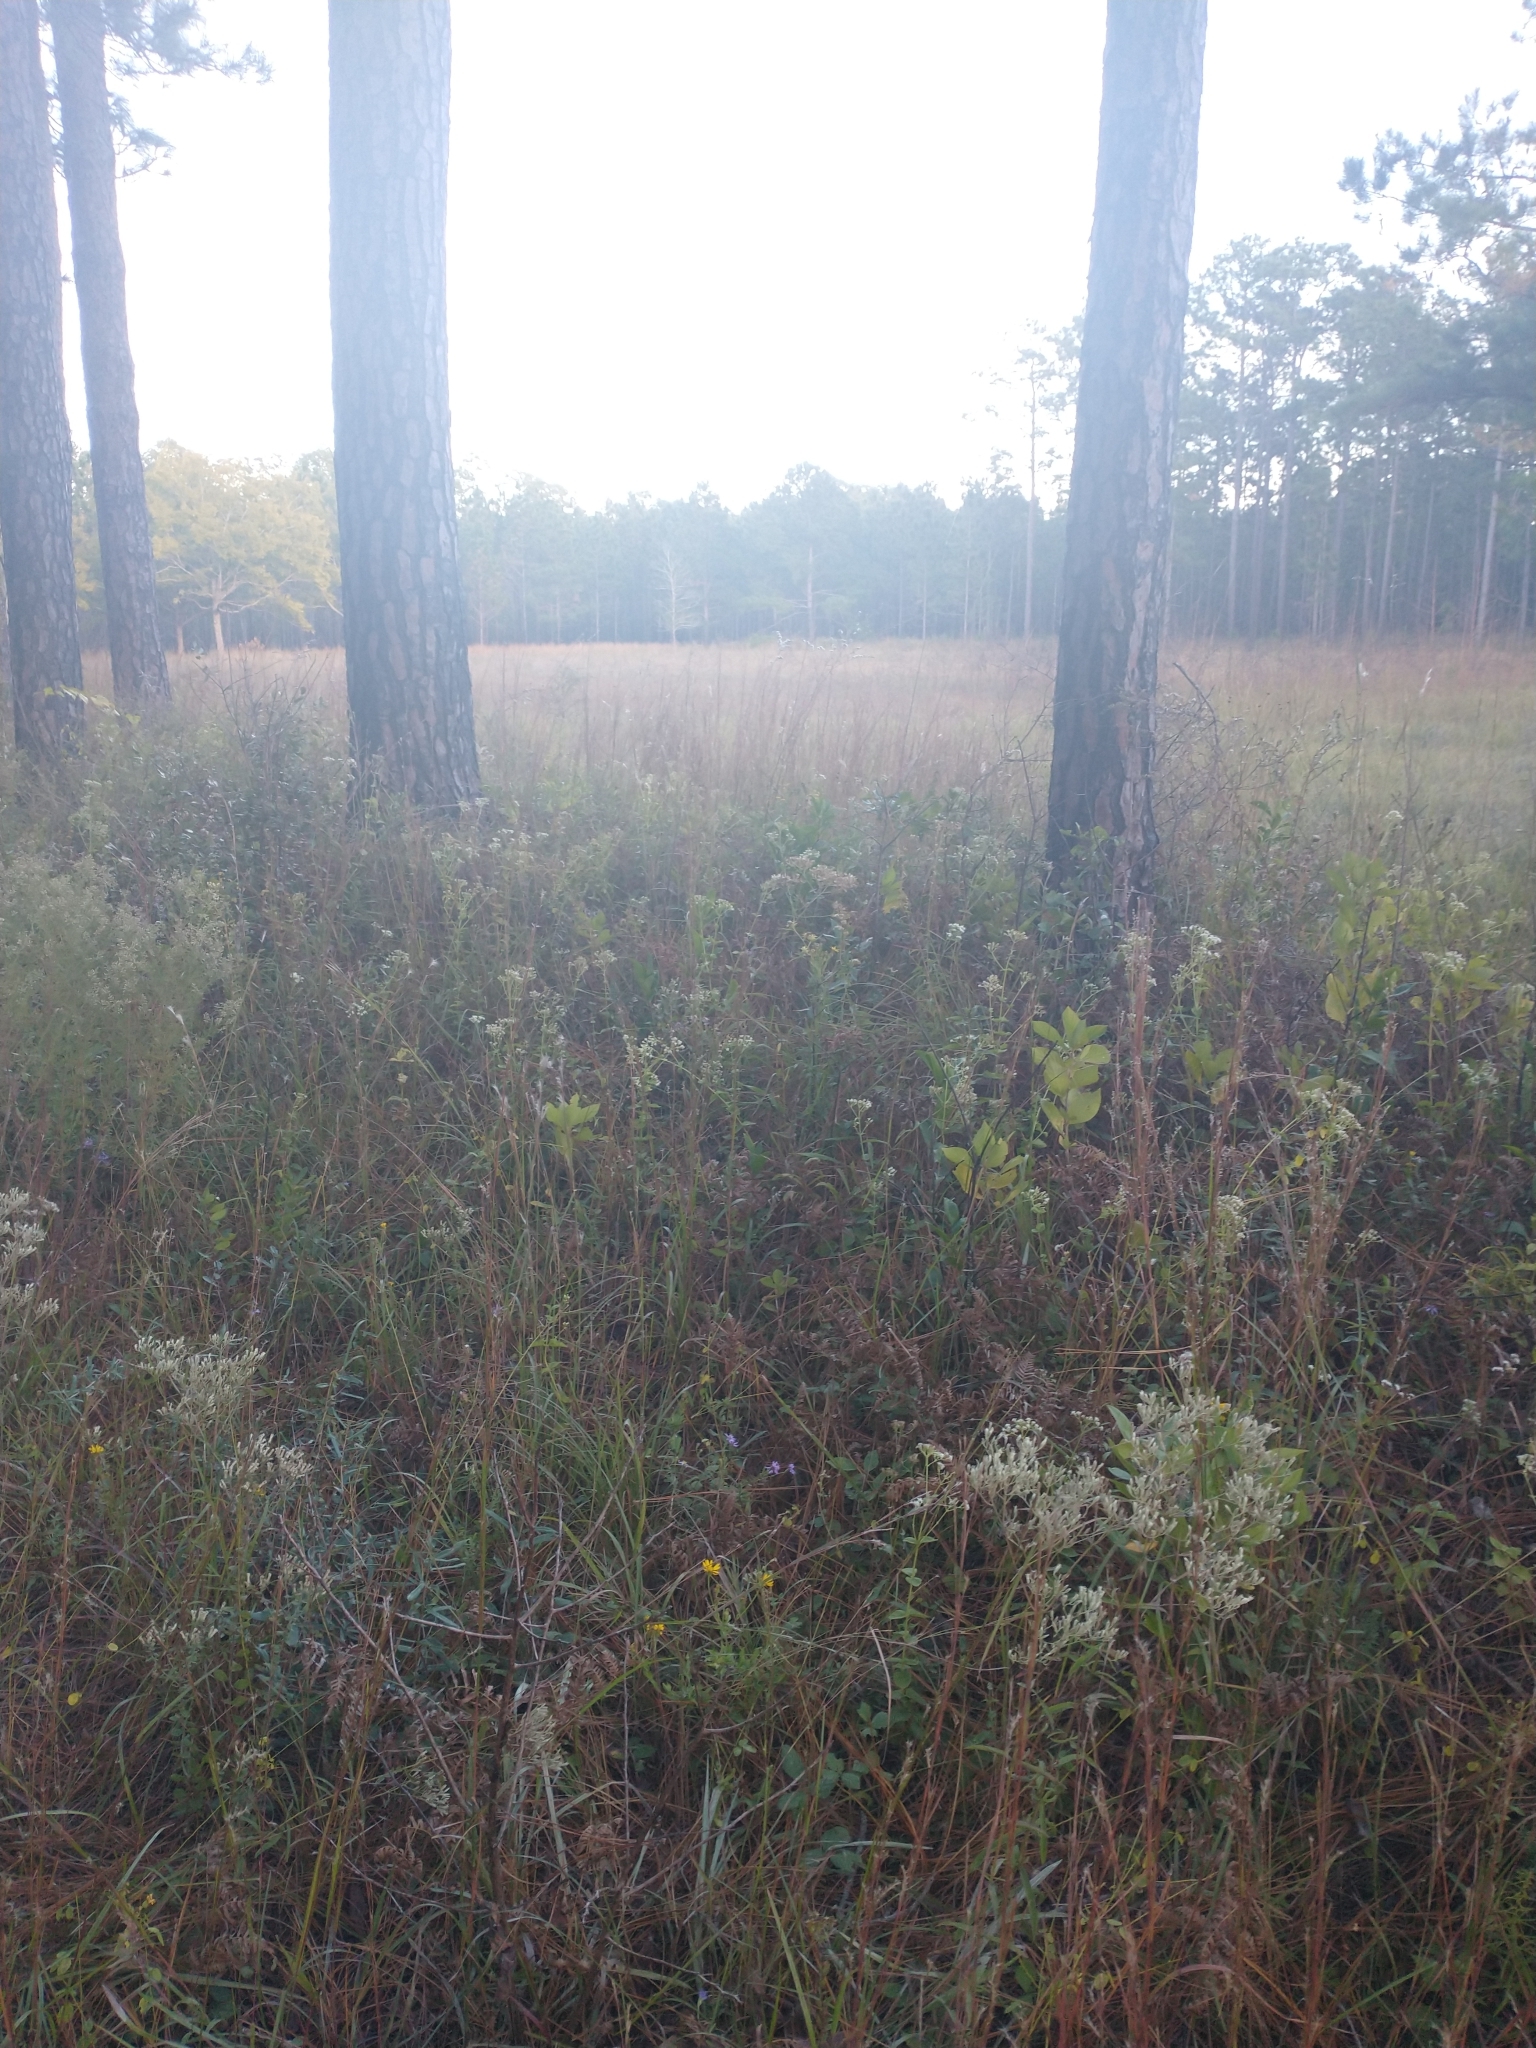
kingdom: Plantae
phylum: Tracheophyta
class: Magnoliopsida
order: Asterales
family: Asteraceae
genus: Ageratina
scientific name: Ageratina aromatica
